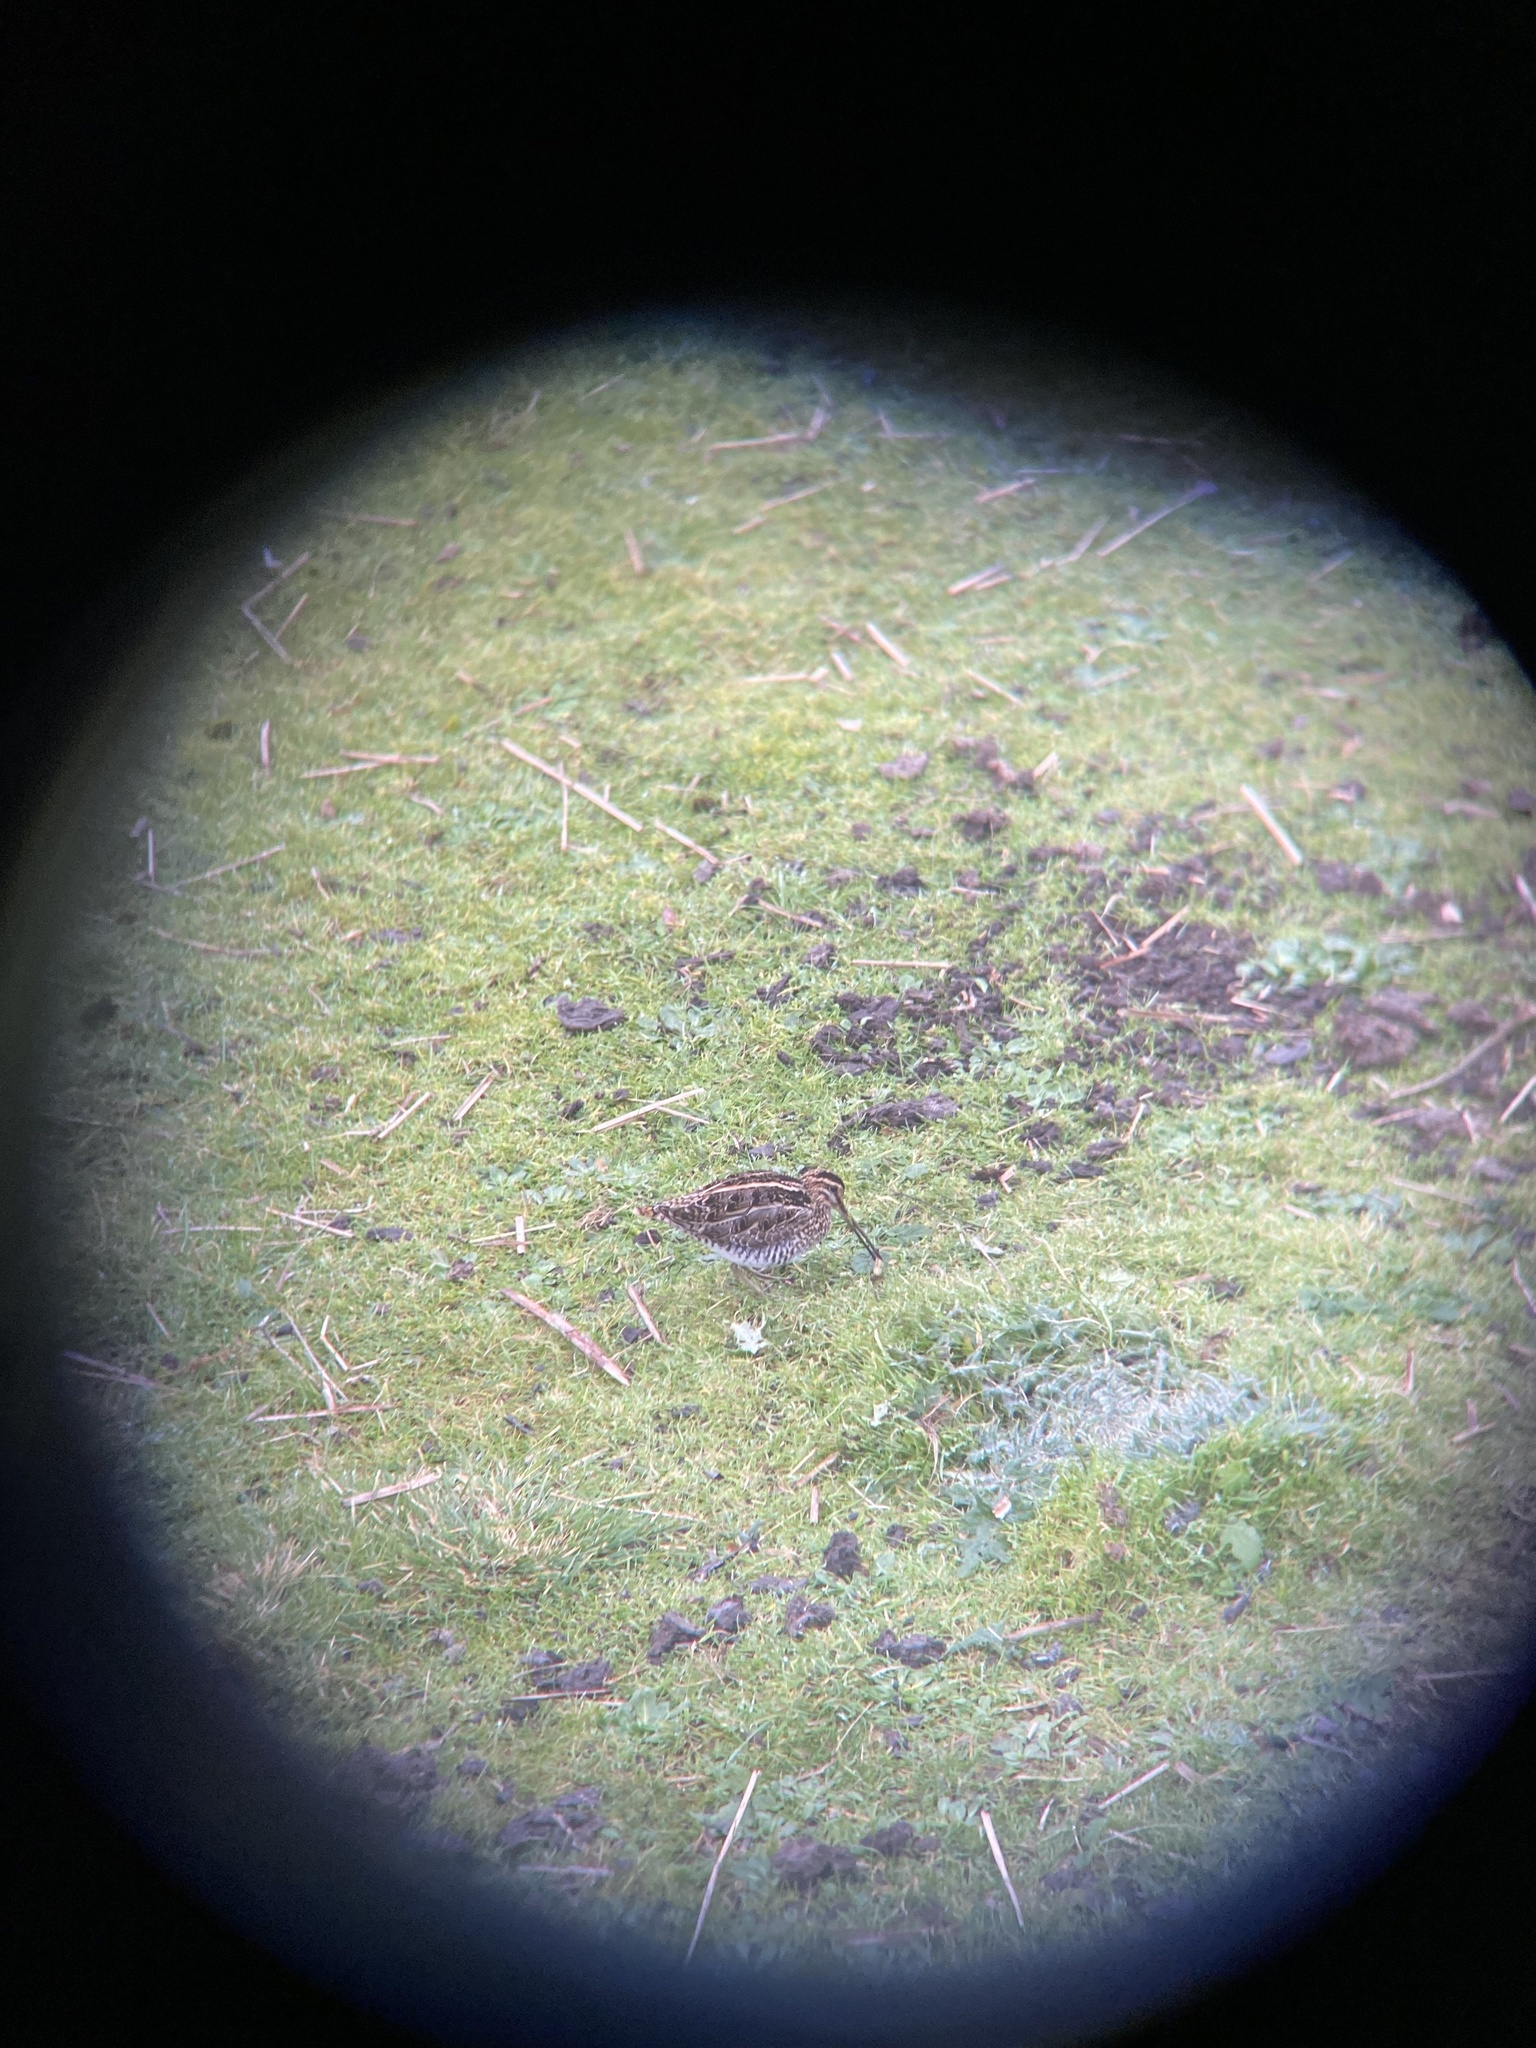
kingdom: Animalia
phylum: Chordata
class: Aves
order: Charadriiformes
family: Scolopacidae
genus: Gallinago
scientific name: Gallinago gallinago
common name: Common snipe
